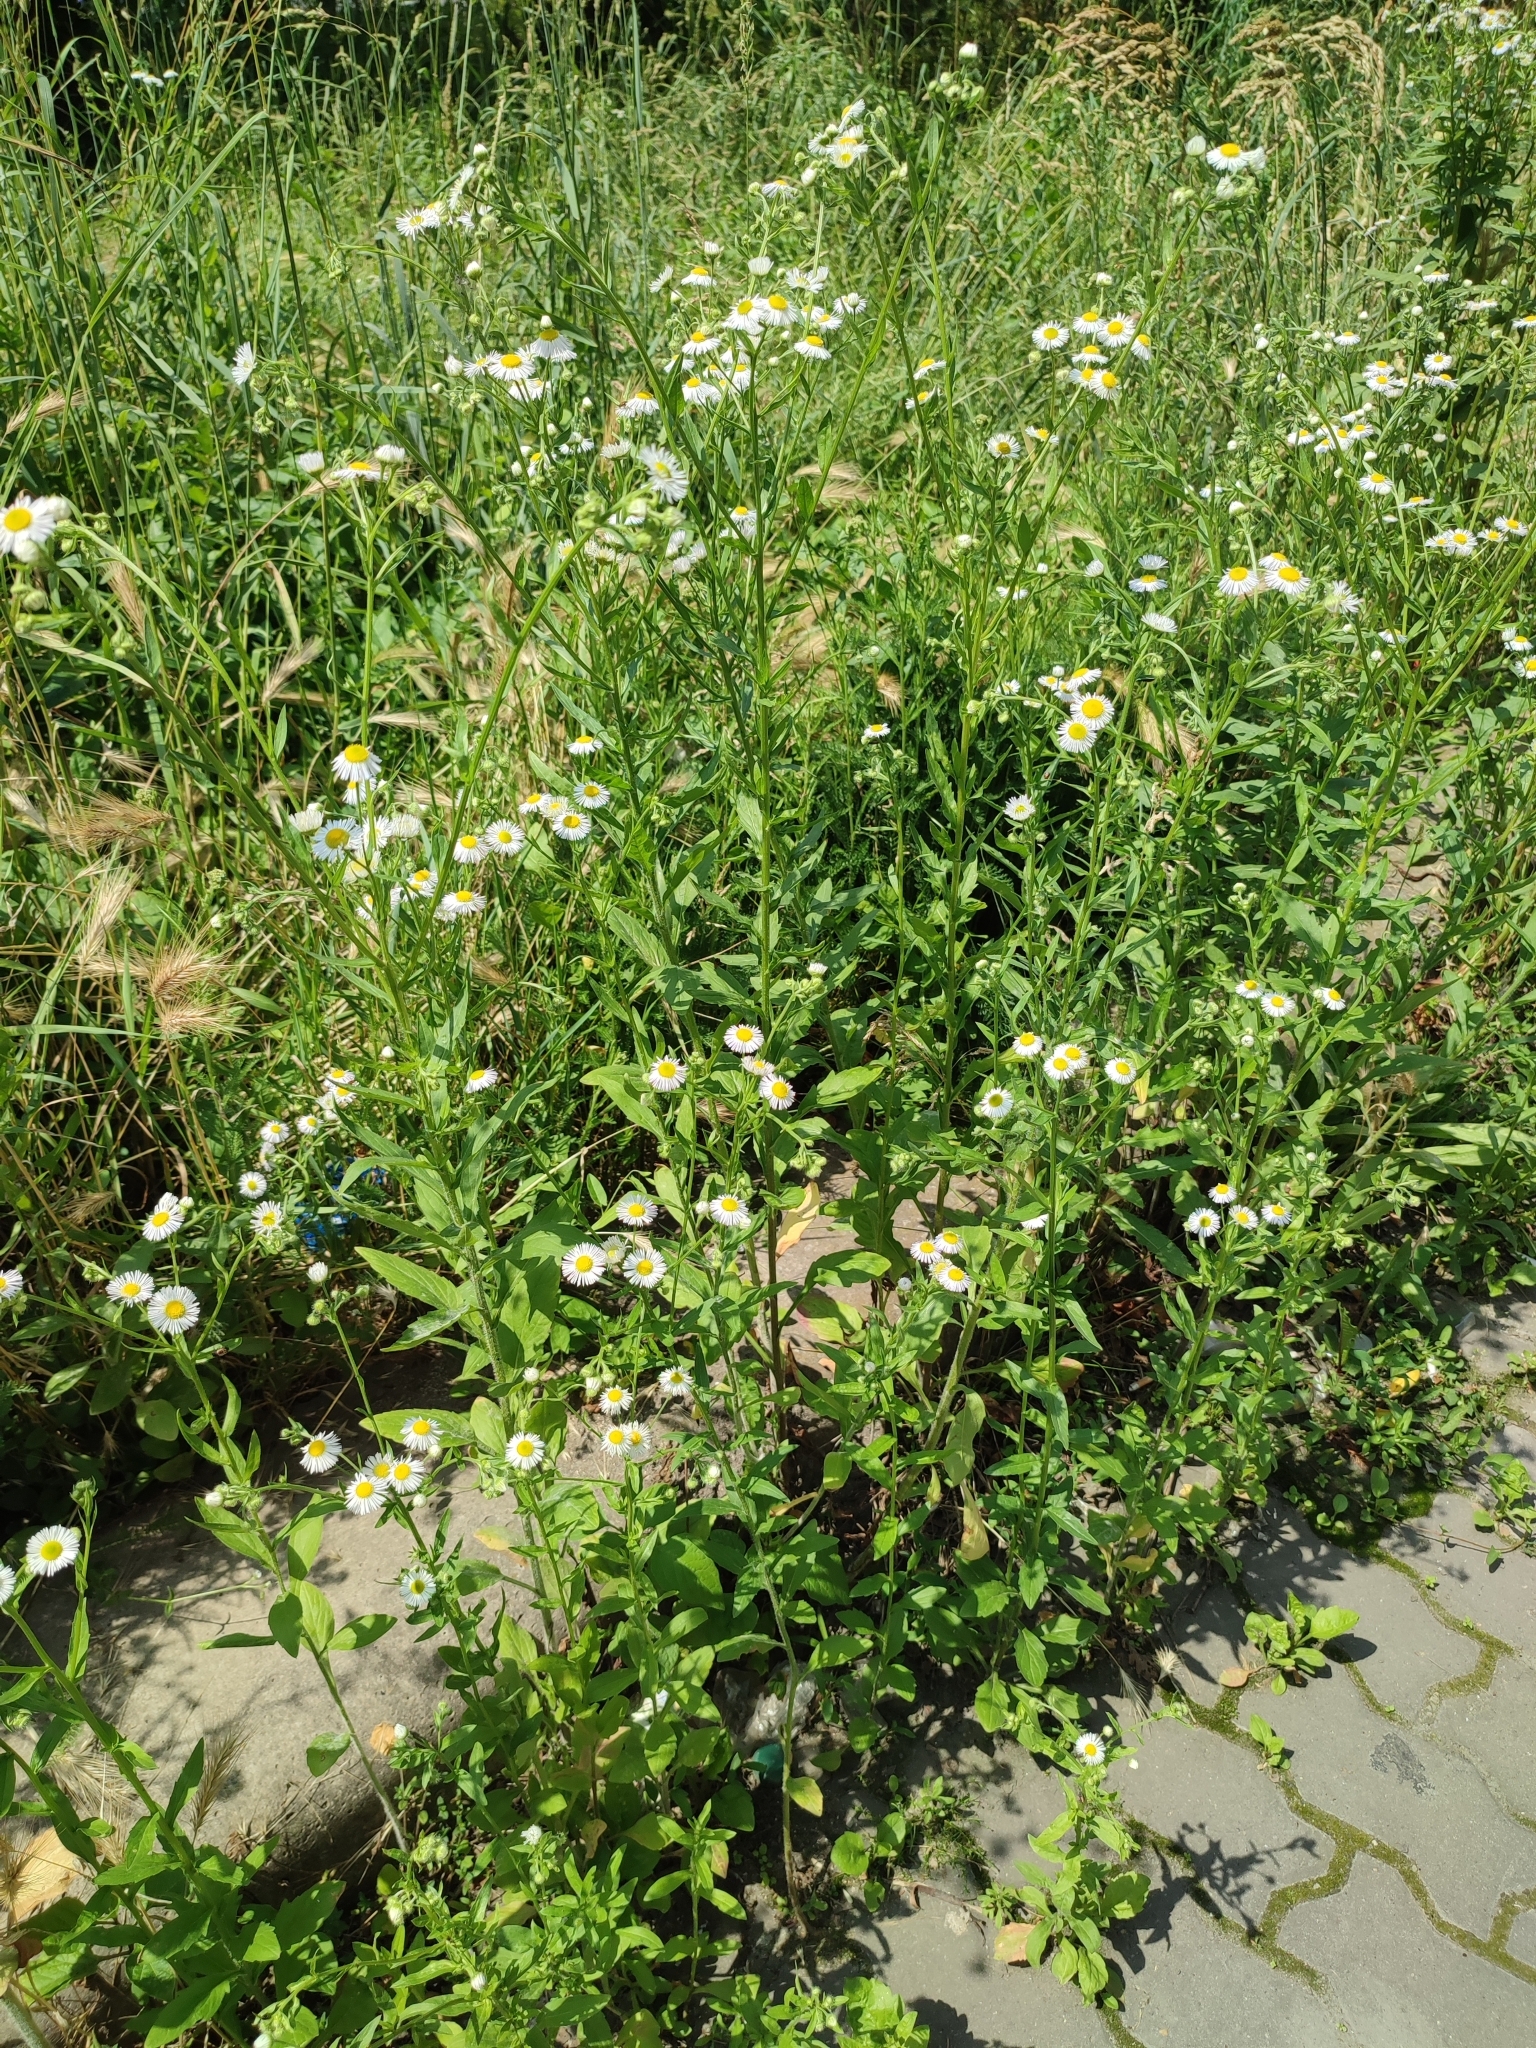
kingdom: Plantae
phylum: Tracheophyta
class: Magnoliopsida
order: Asterales
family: Asteraceae
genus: Erigeron
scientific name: Erigeron annuus
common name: Tall fleabane
